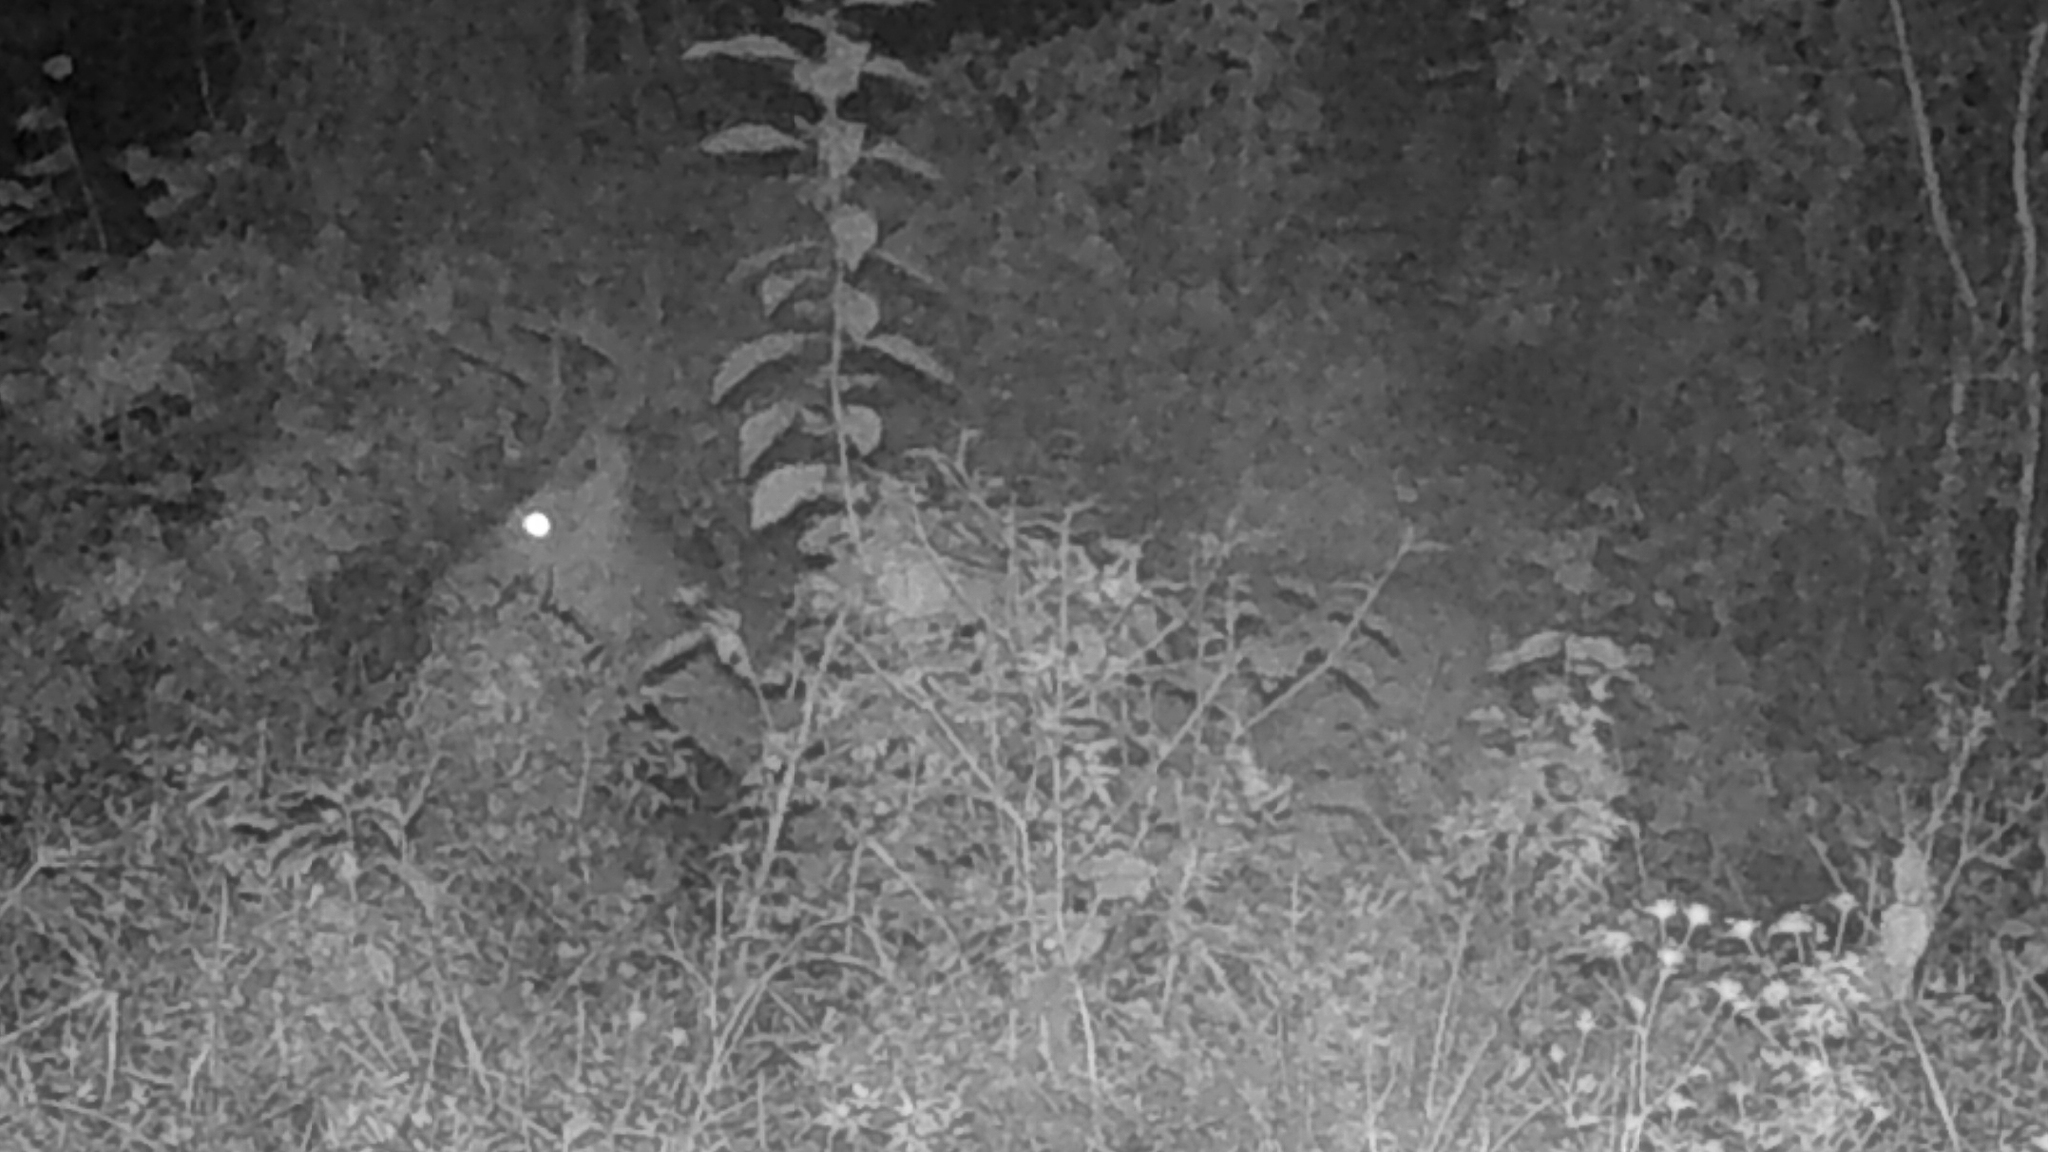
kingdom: Animalia
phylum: Chordata
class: Mammalia
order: Artiodactyla
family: Cervidae
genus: Odocoileus
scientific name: Odocoileus virginianus
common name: White-tailed deer
